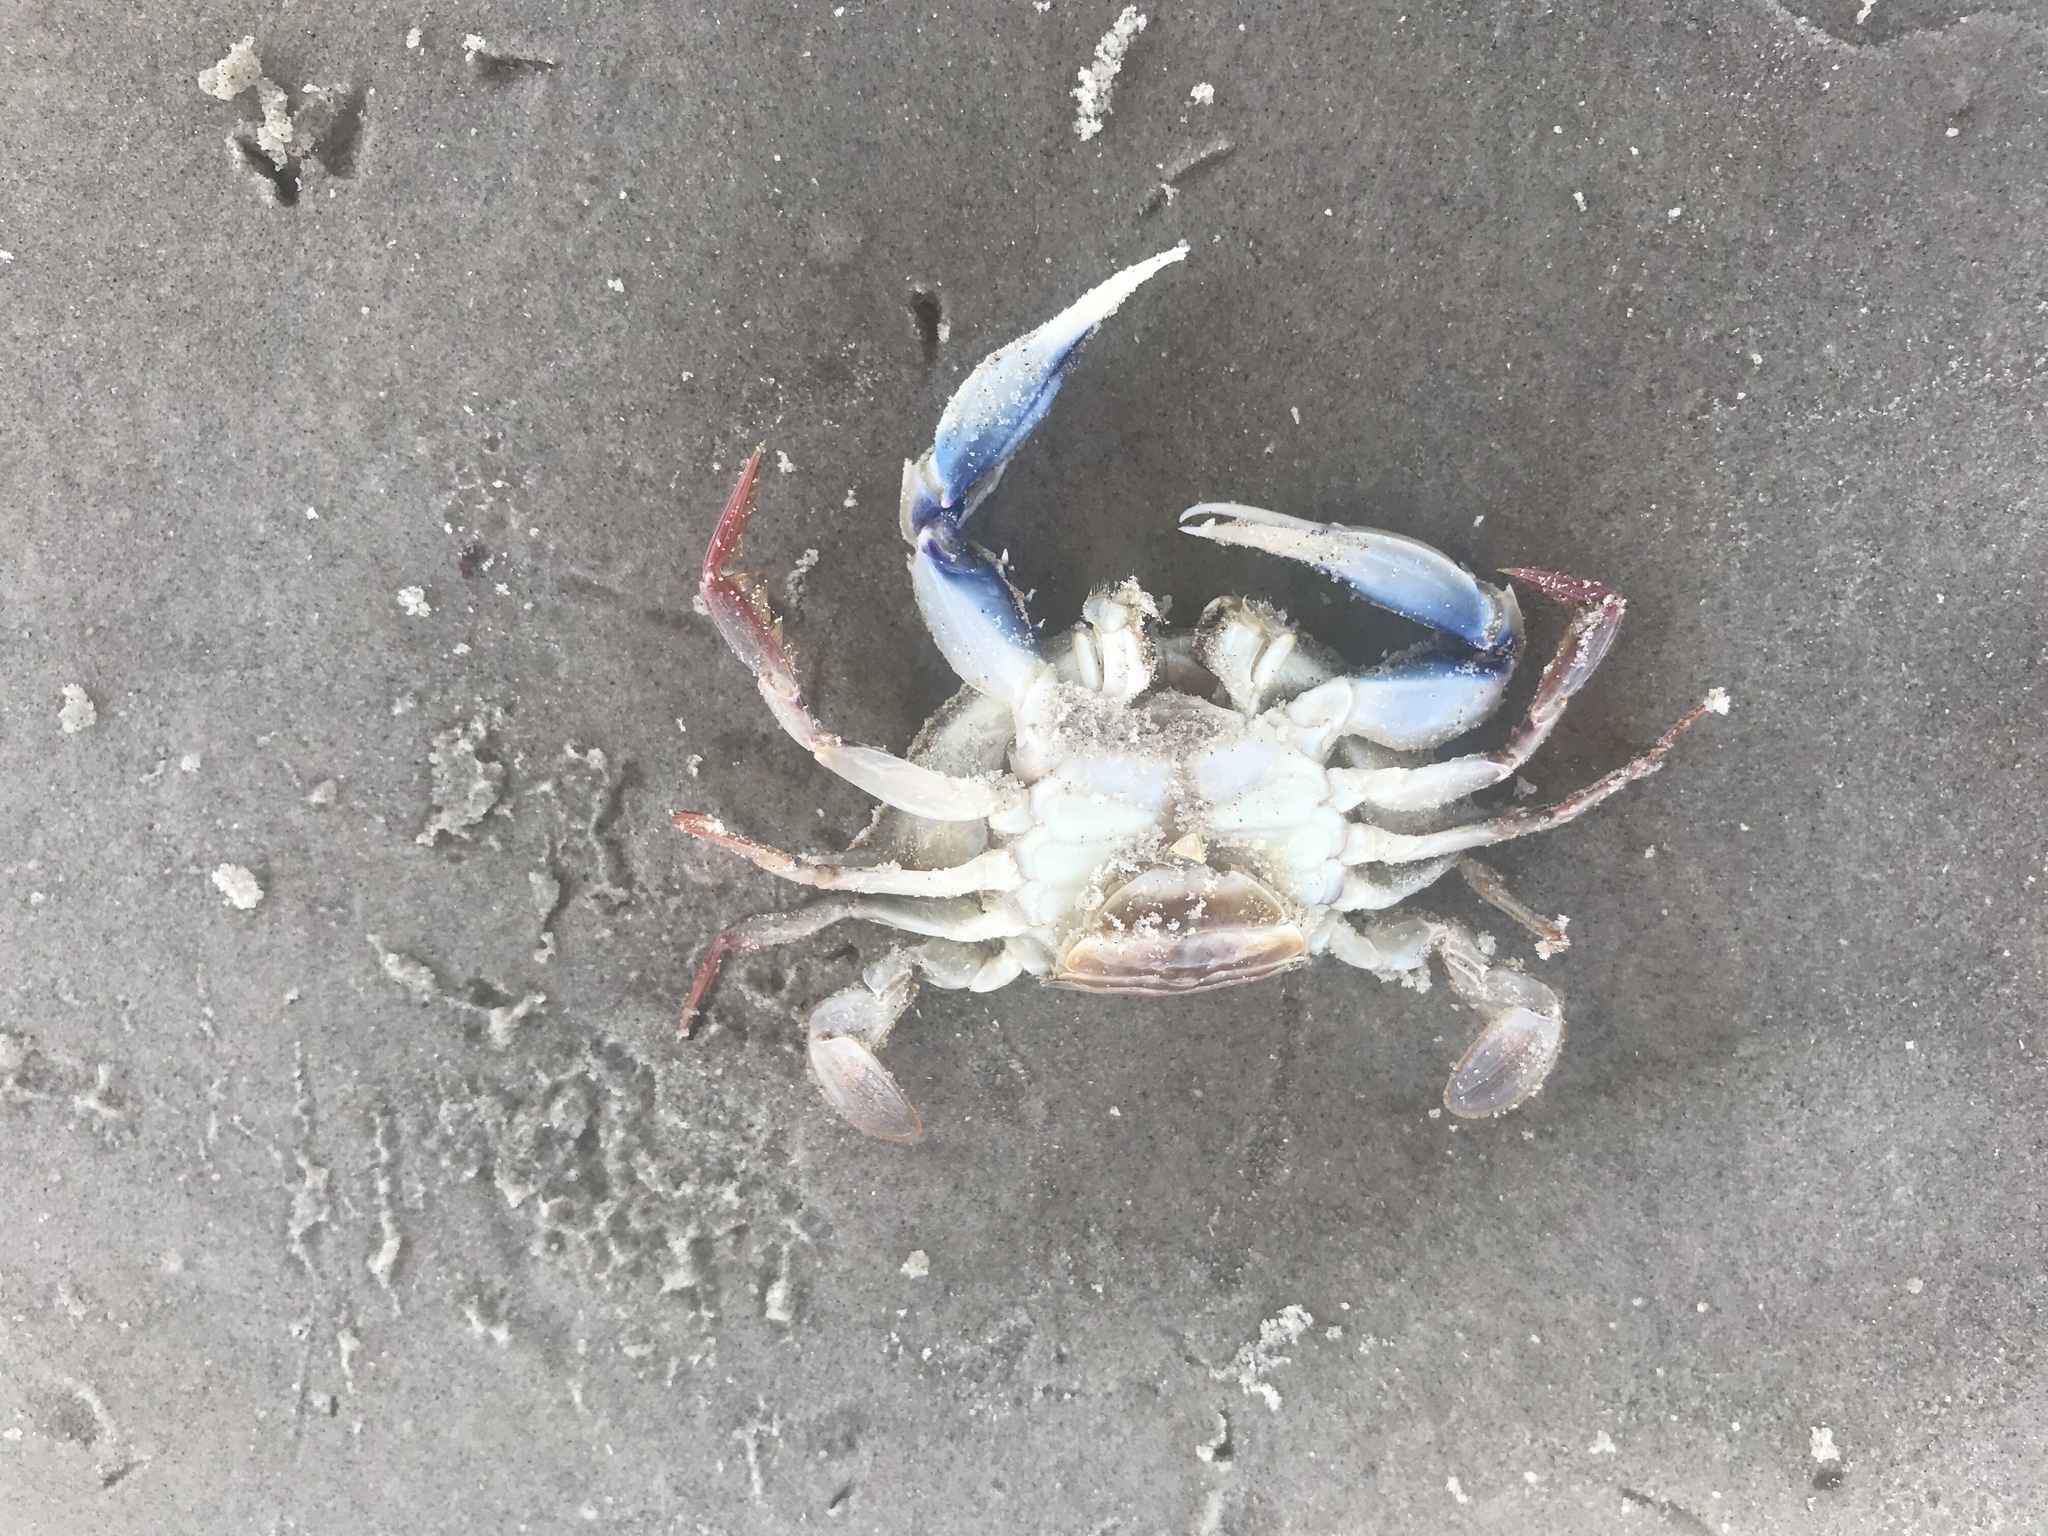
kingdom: Animalia
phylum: Arthropoda
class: Malacostraca
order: Decapoda
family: Portunidae
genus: Callinectes
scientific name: Callinectes sapidus
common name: Blue crab
